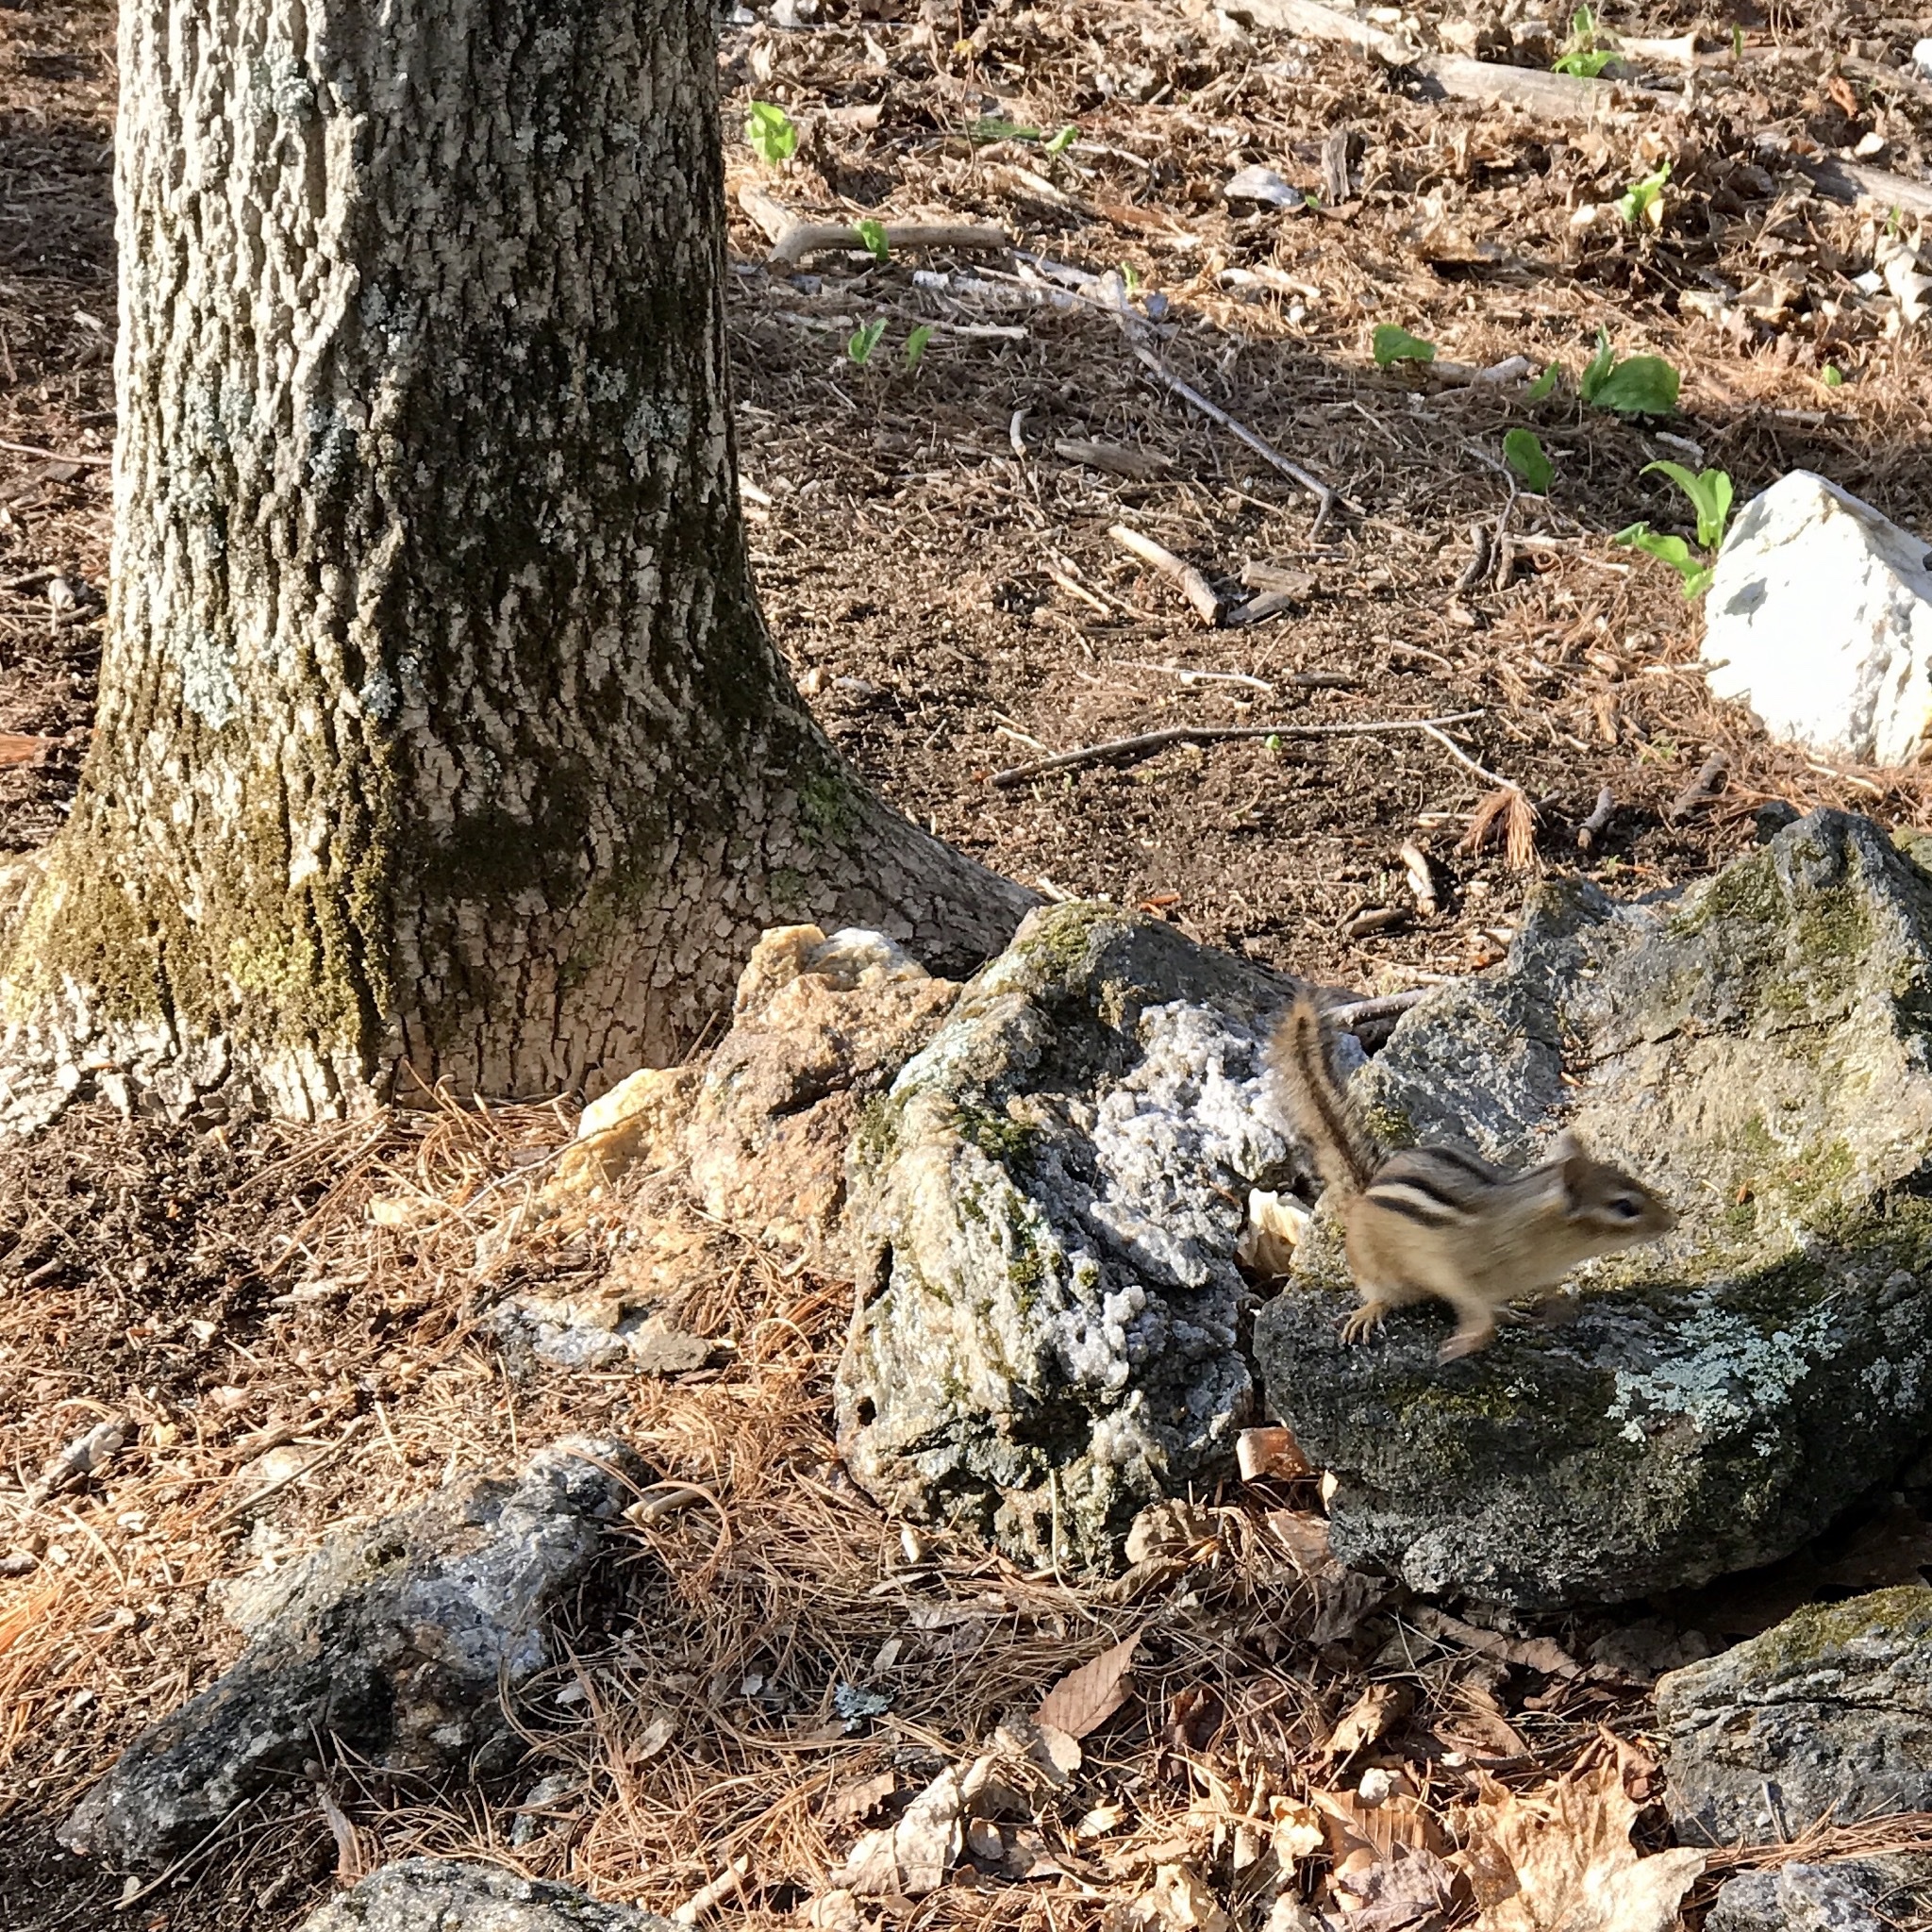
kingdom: Animalia
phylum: Chordata
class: Mammalia
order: Rodentia
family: Sciuridae
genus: Tamias
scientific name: Tamias striatus
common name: Eastern chipmunk
